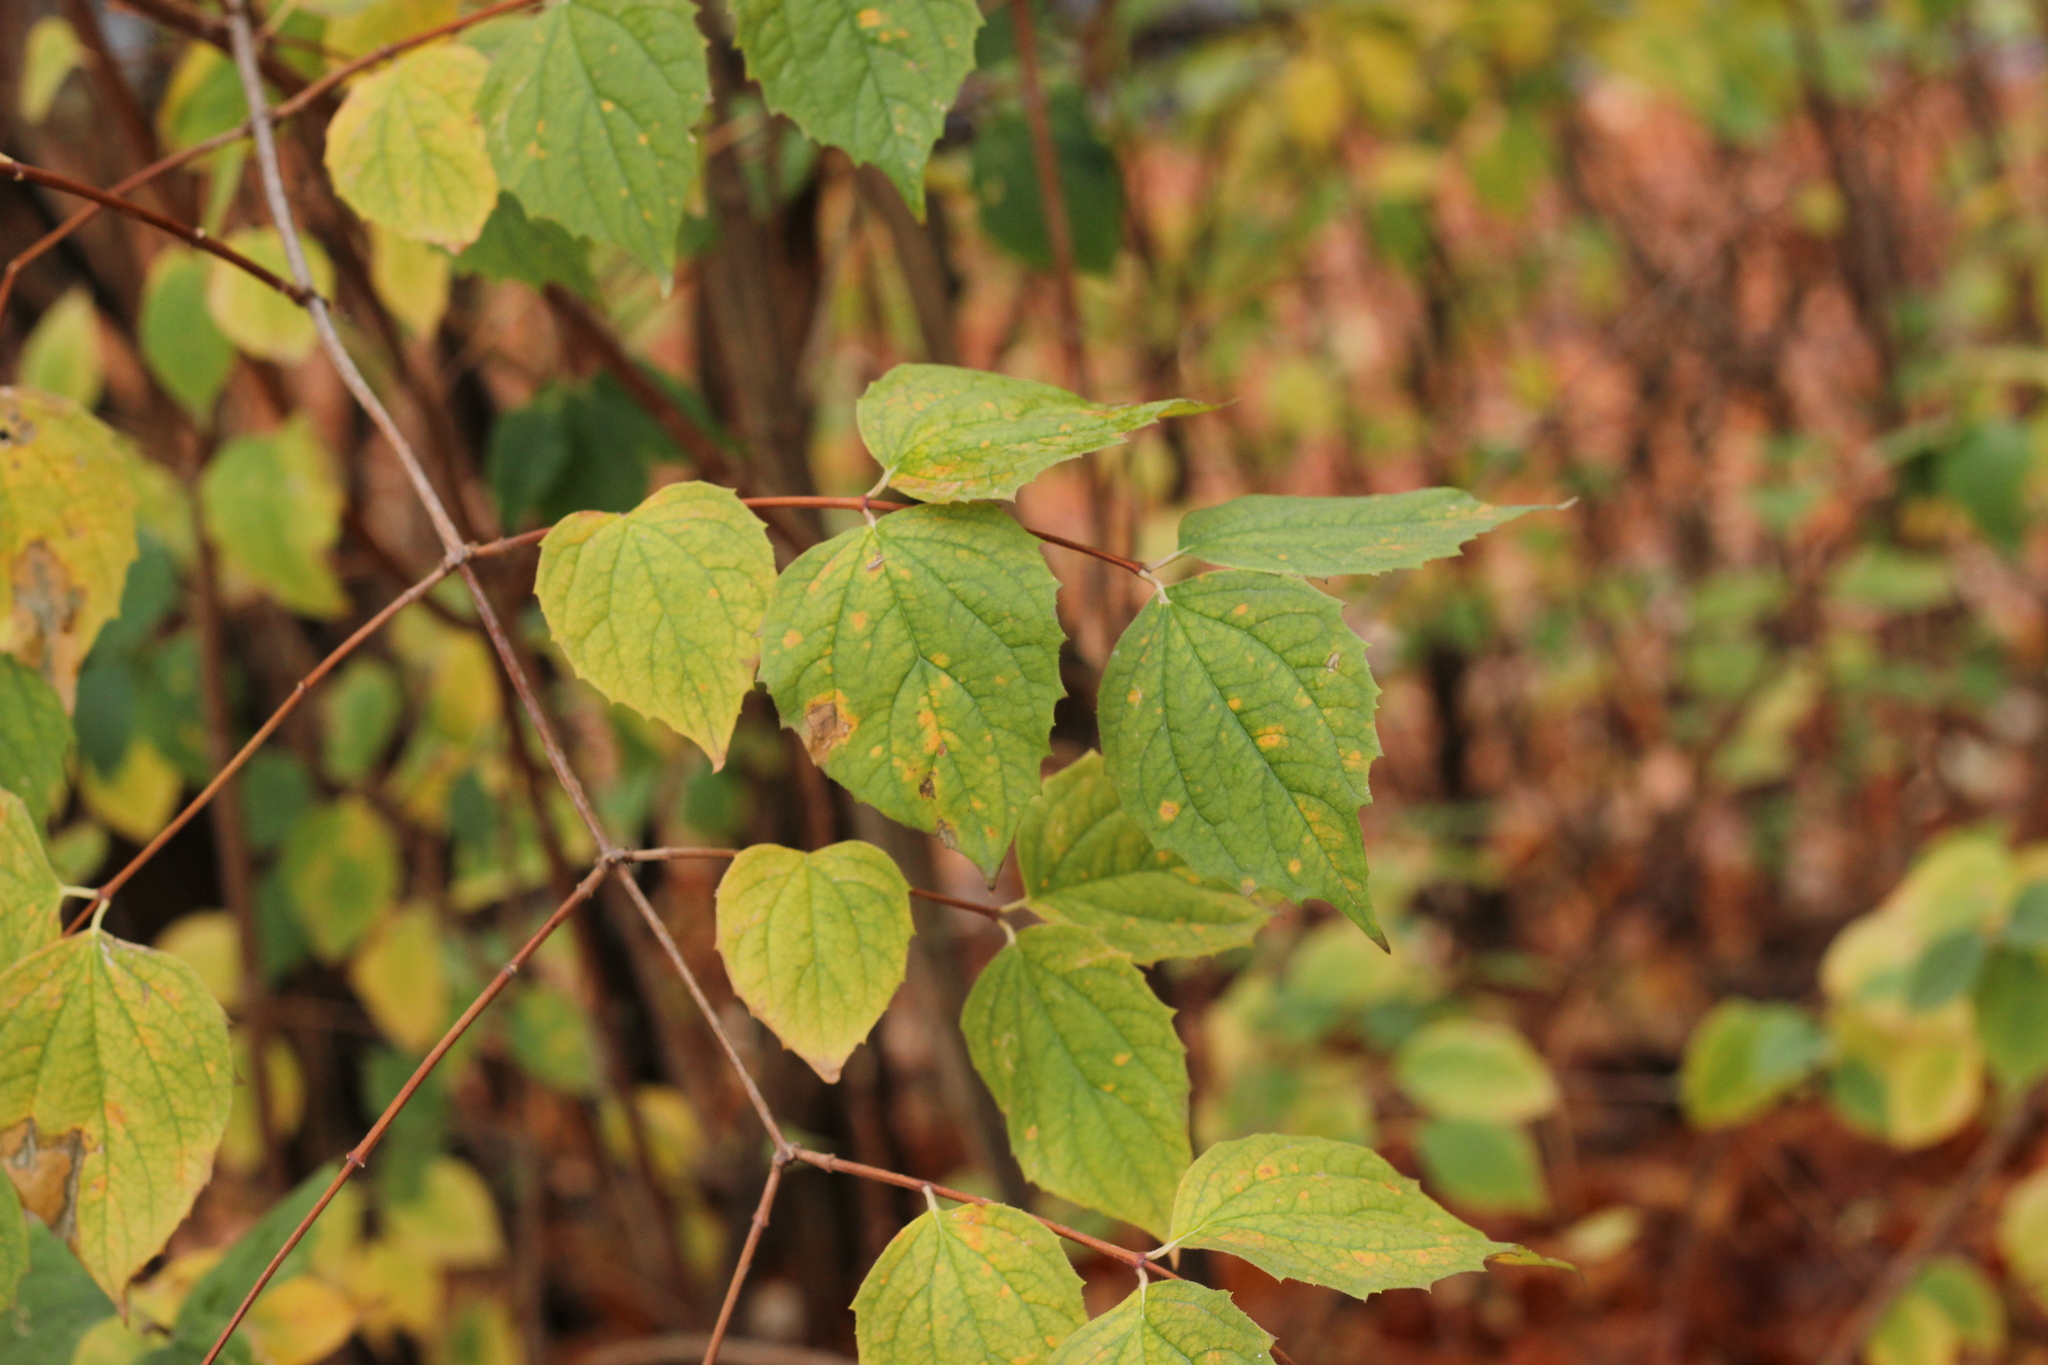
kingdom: Plantae
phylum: Tracheophyta
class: Magnoliopsida
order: Cornales
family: Hydrangeaceae
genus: Philadelphus
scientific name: Philadelphus coronarius
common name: Mock orange
